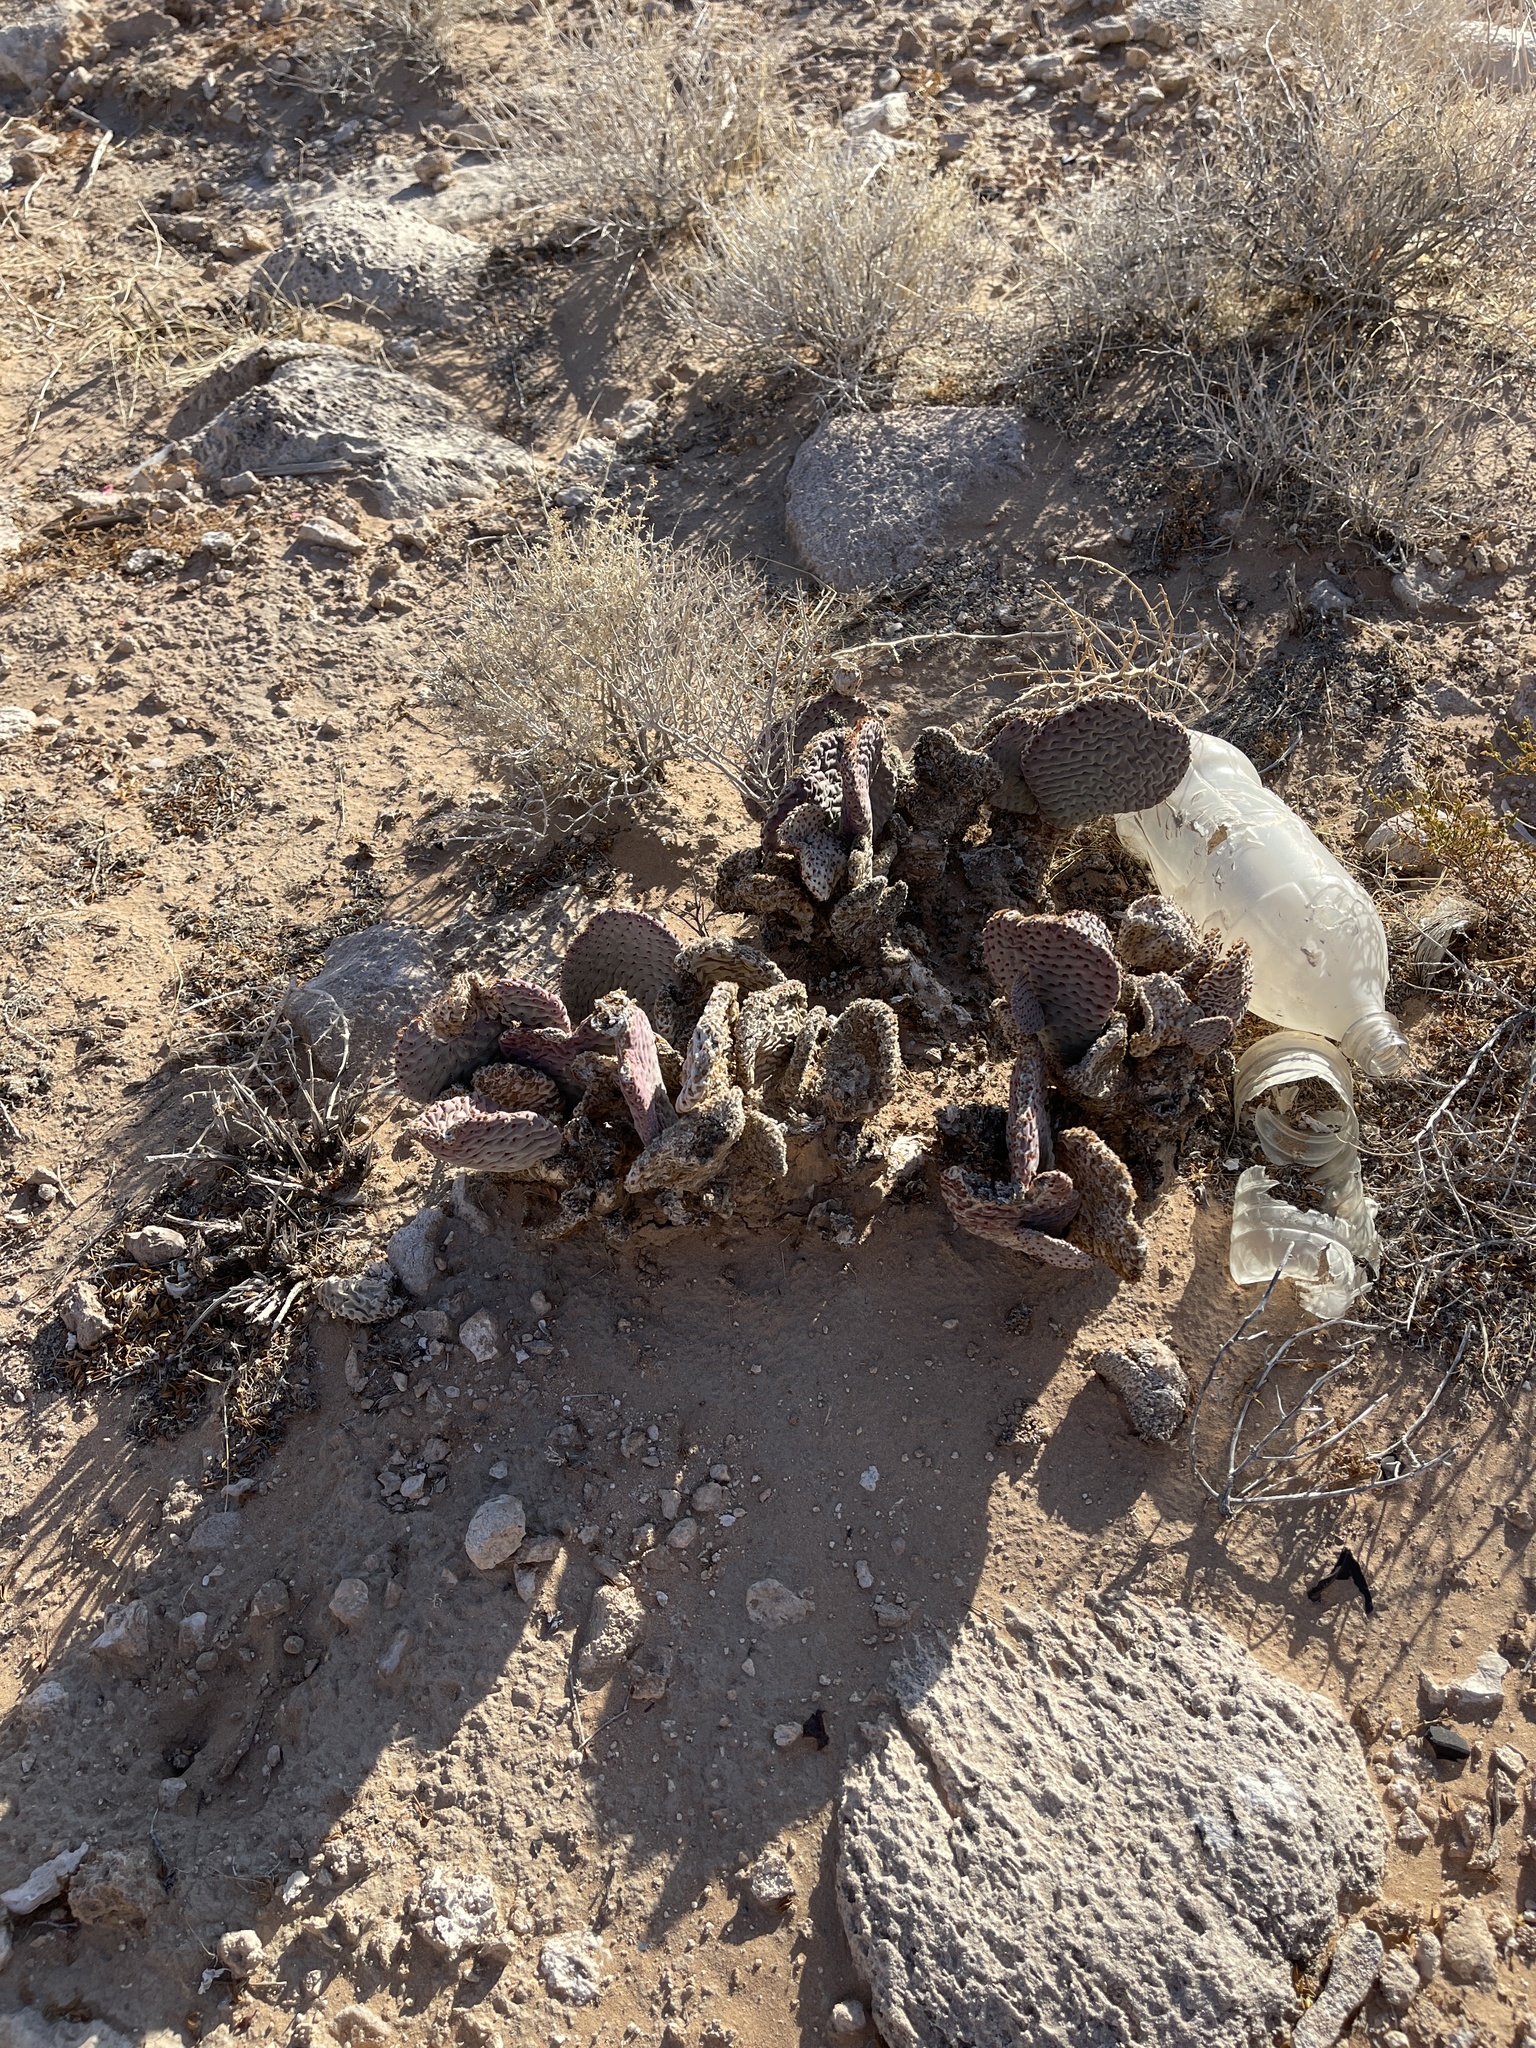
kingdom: Plantae
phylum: Tracheophyta
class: Magnoliopsida
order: Caryophyllales
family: Cactaceae
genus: Opuntia
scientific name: Opuntia basilaris
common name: Beavertail prickly-pear
